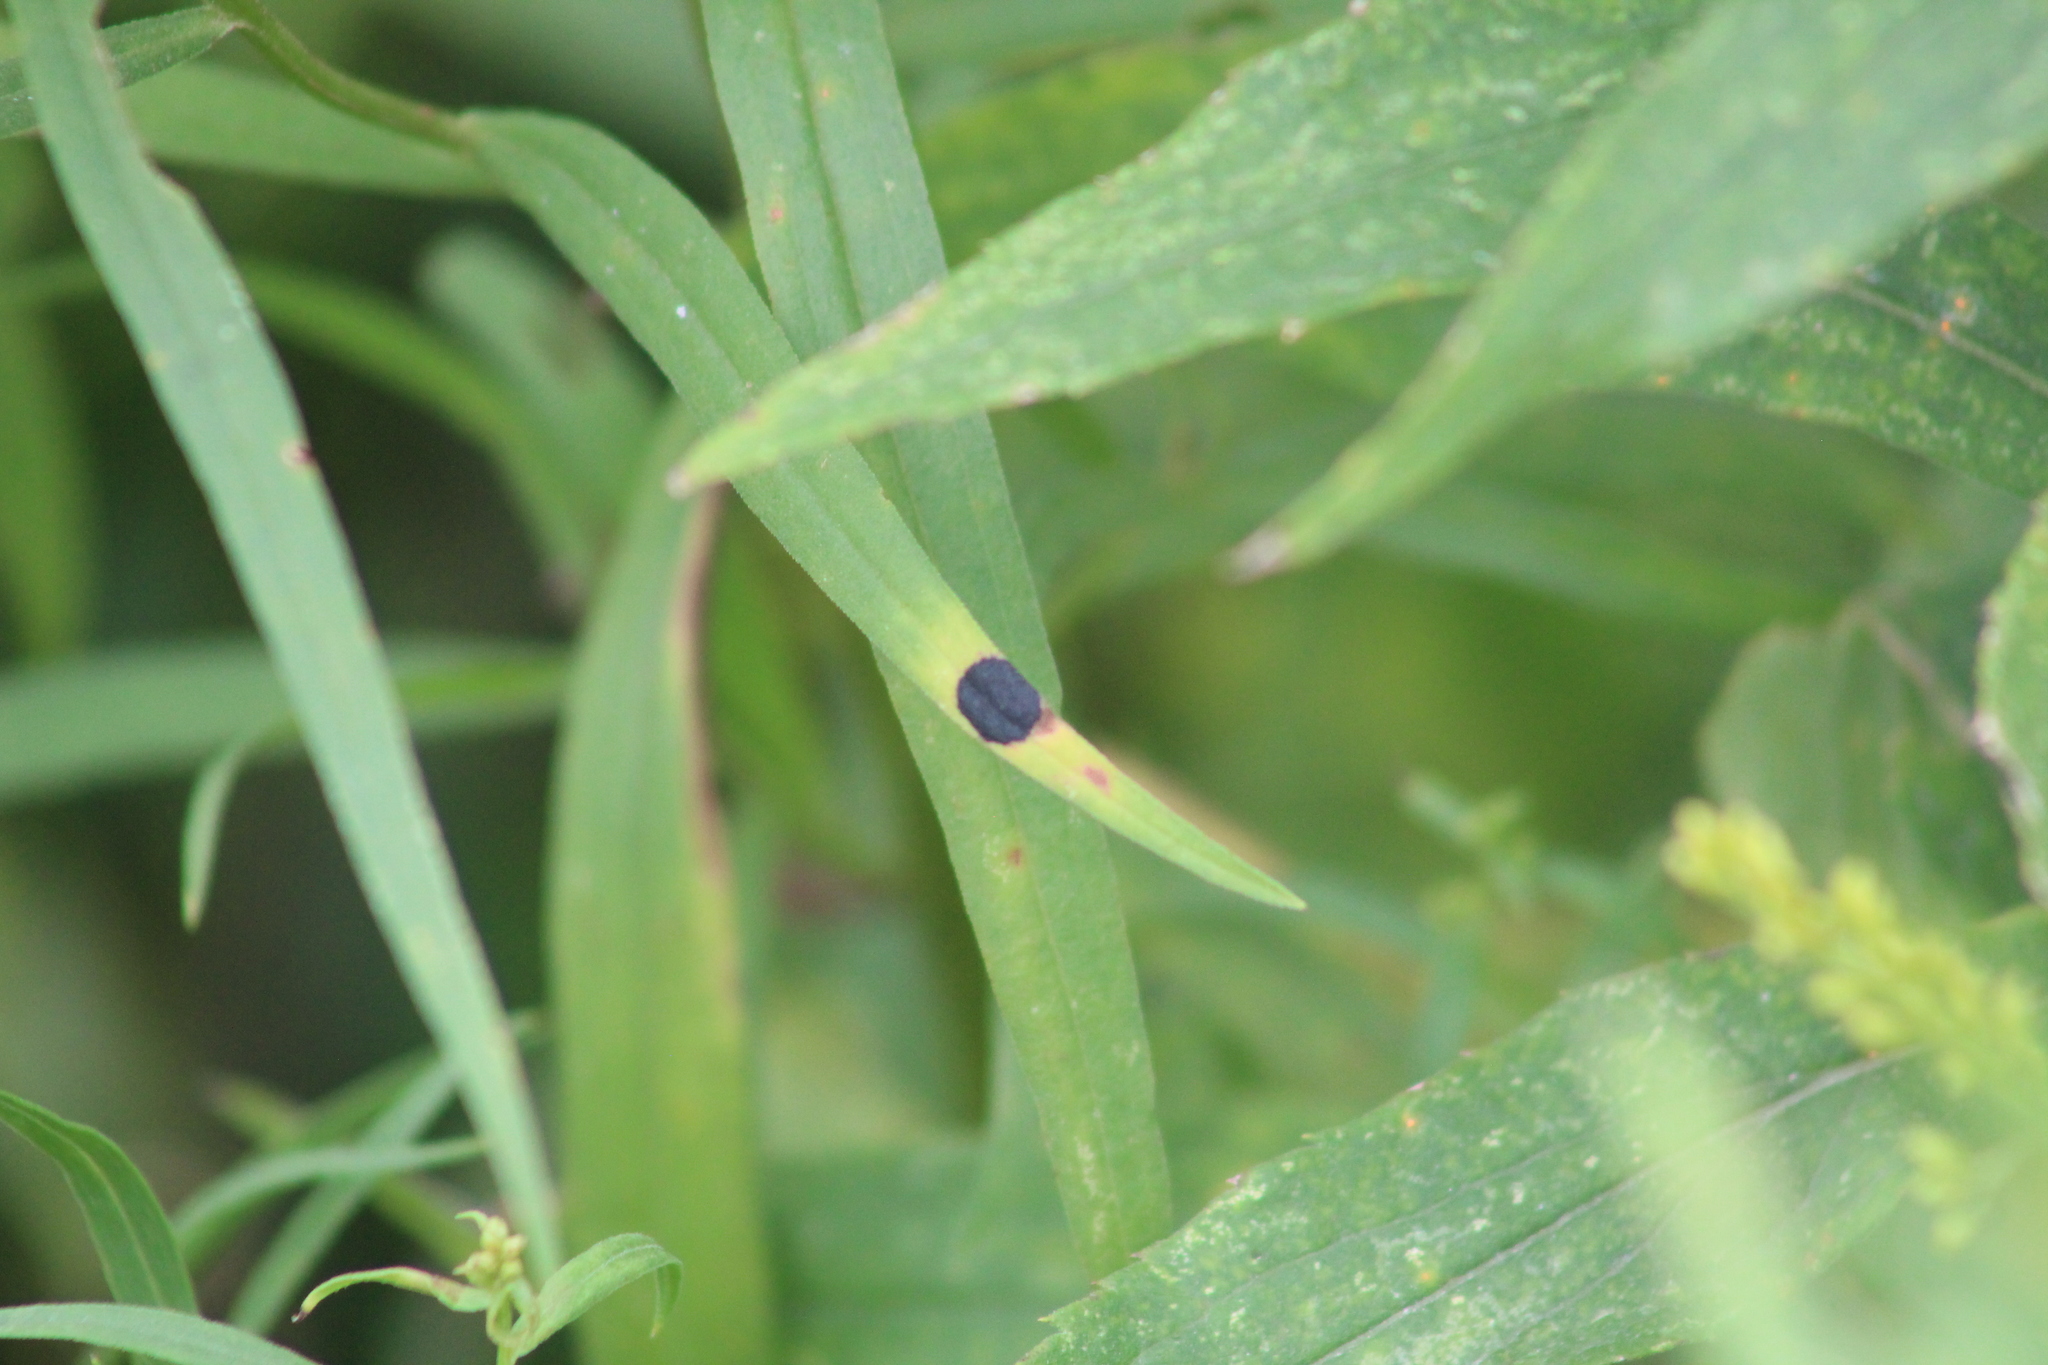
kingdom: Animalia
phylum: Arthropoda
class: Insecta
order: Diptera
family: Cecidomyiidae
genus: Asteromyia
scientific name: Asteromyia euthamiae
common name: Euthamia leaf gall midge
